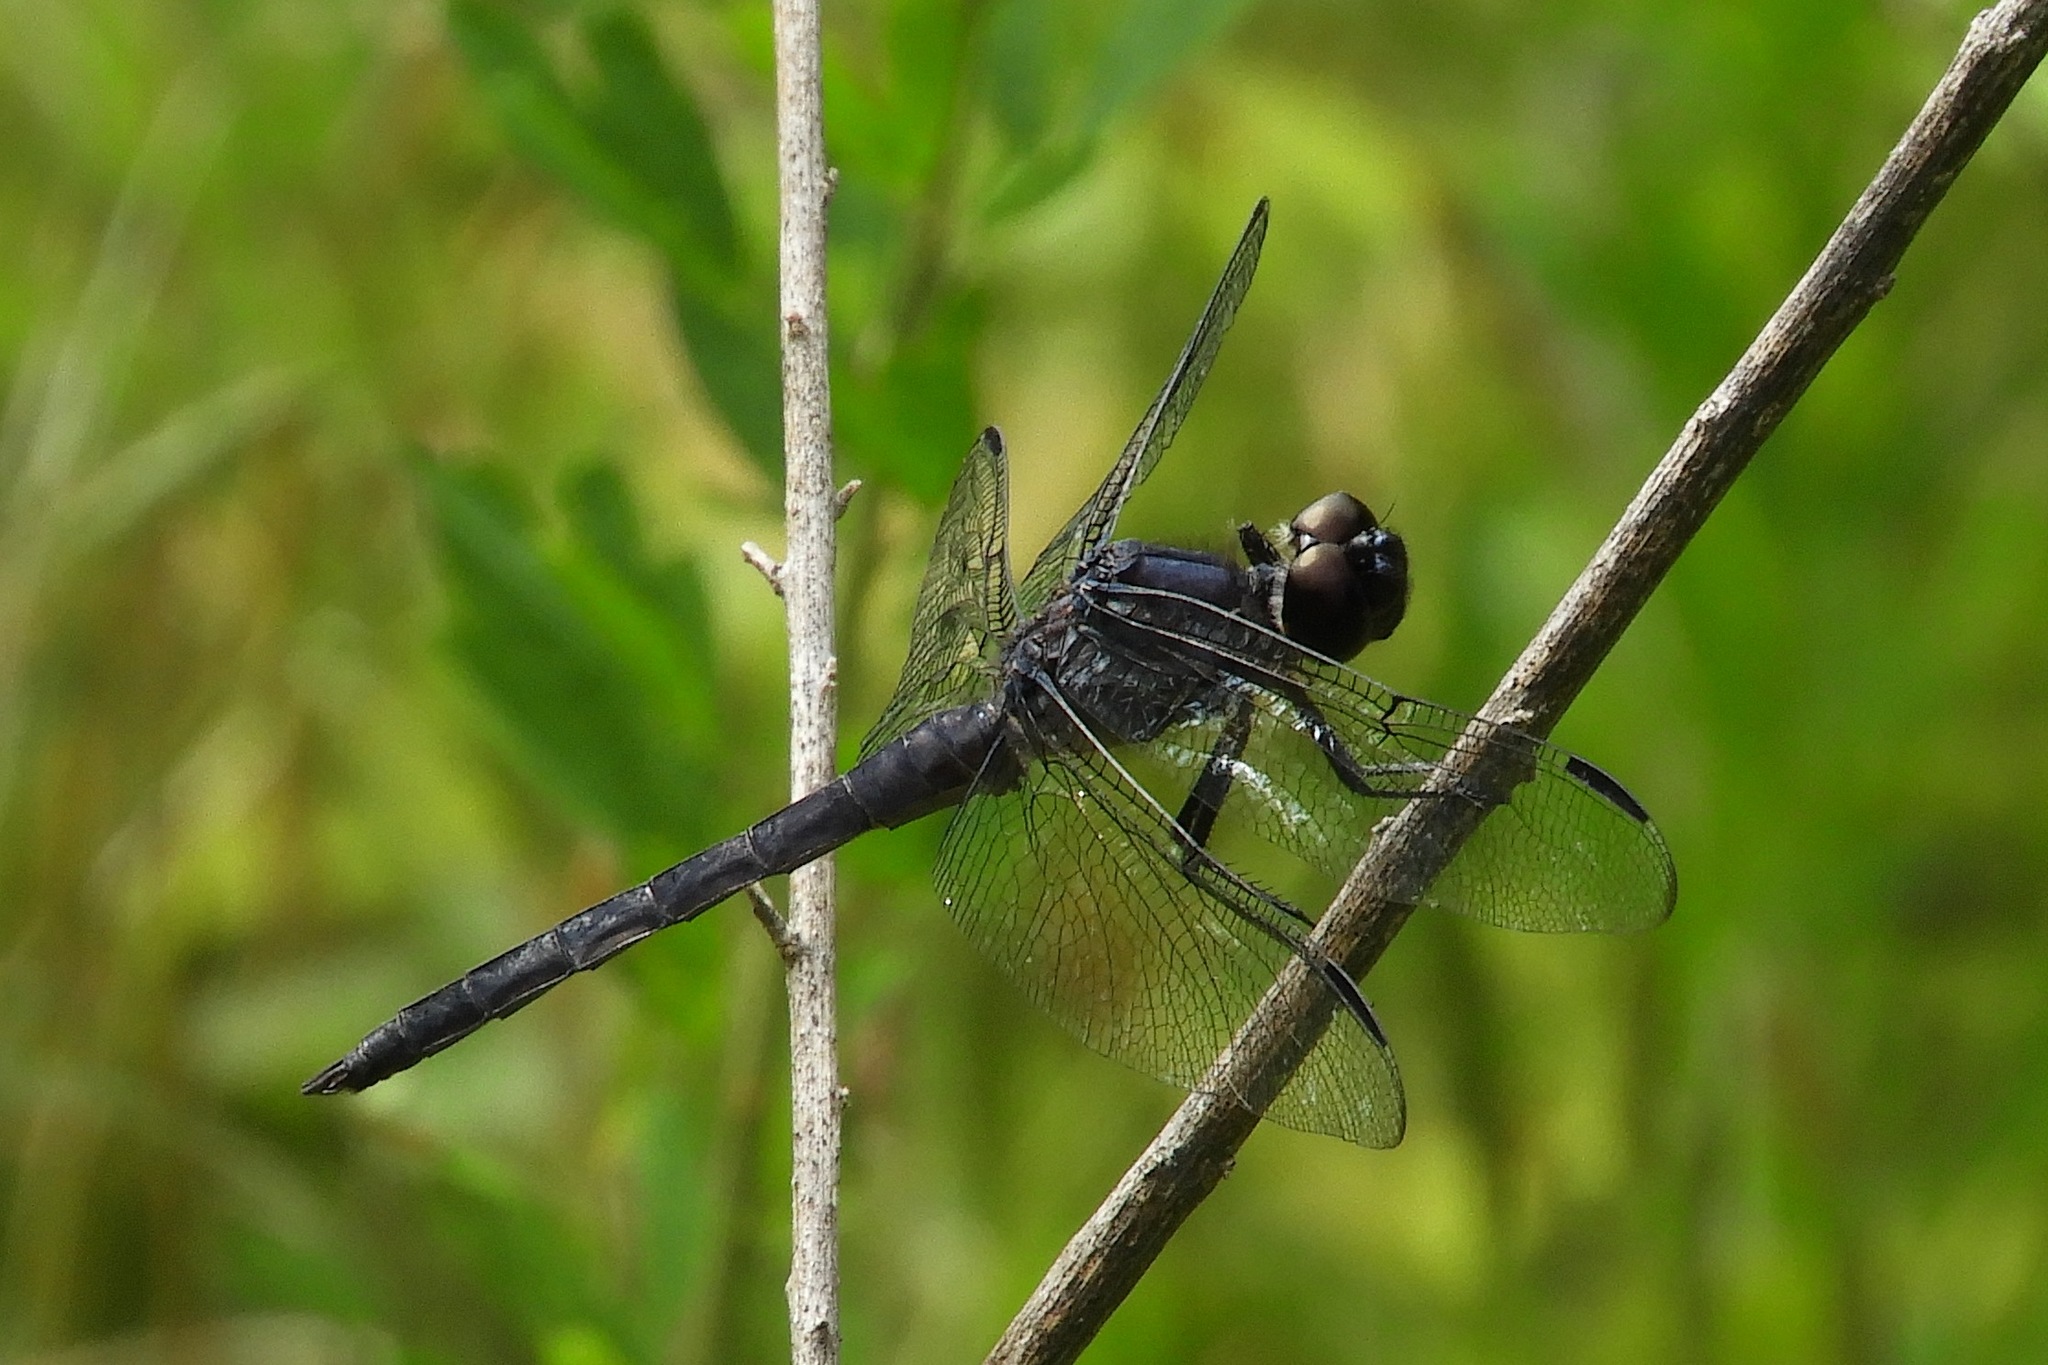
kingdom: Animalia
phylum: Arthropoda
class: Insecta
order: Odonata
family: Libellulidae
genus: Libellula
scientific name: Libellula incesta
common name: Slaty skimmer
